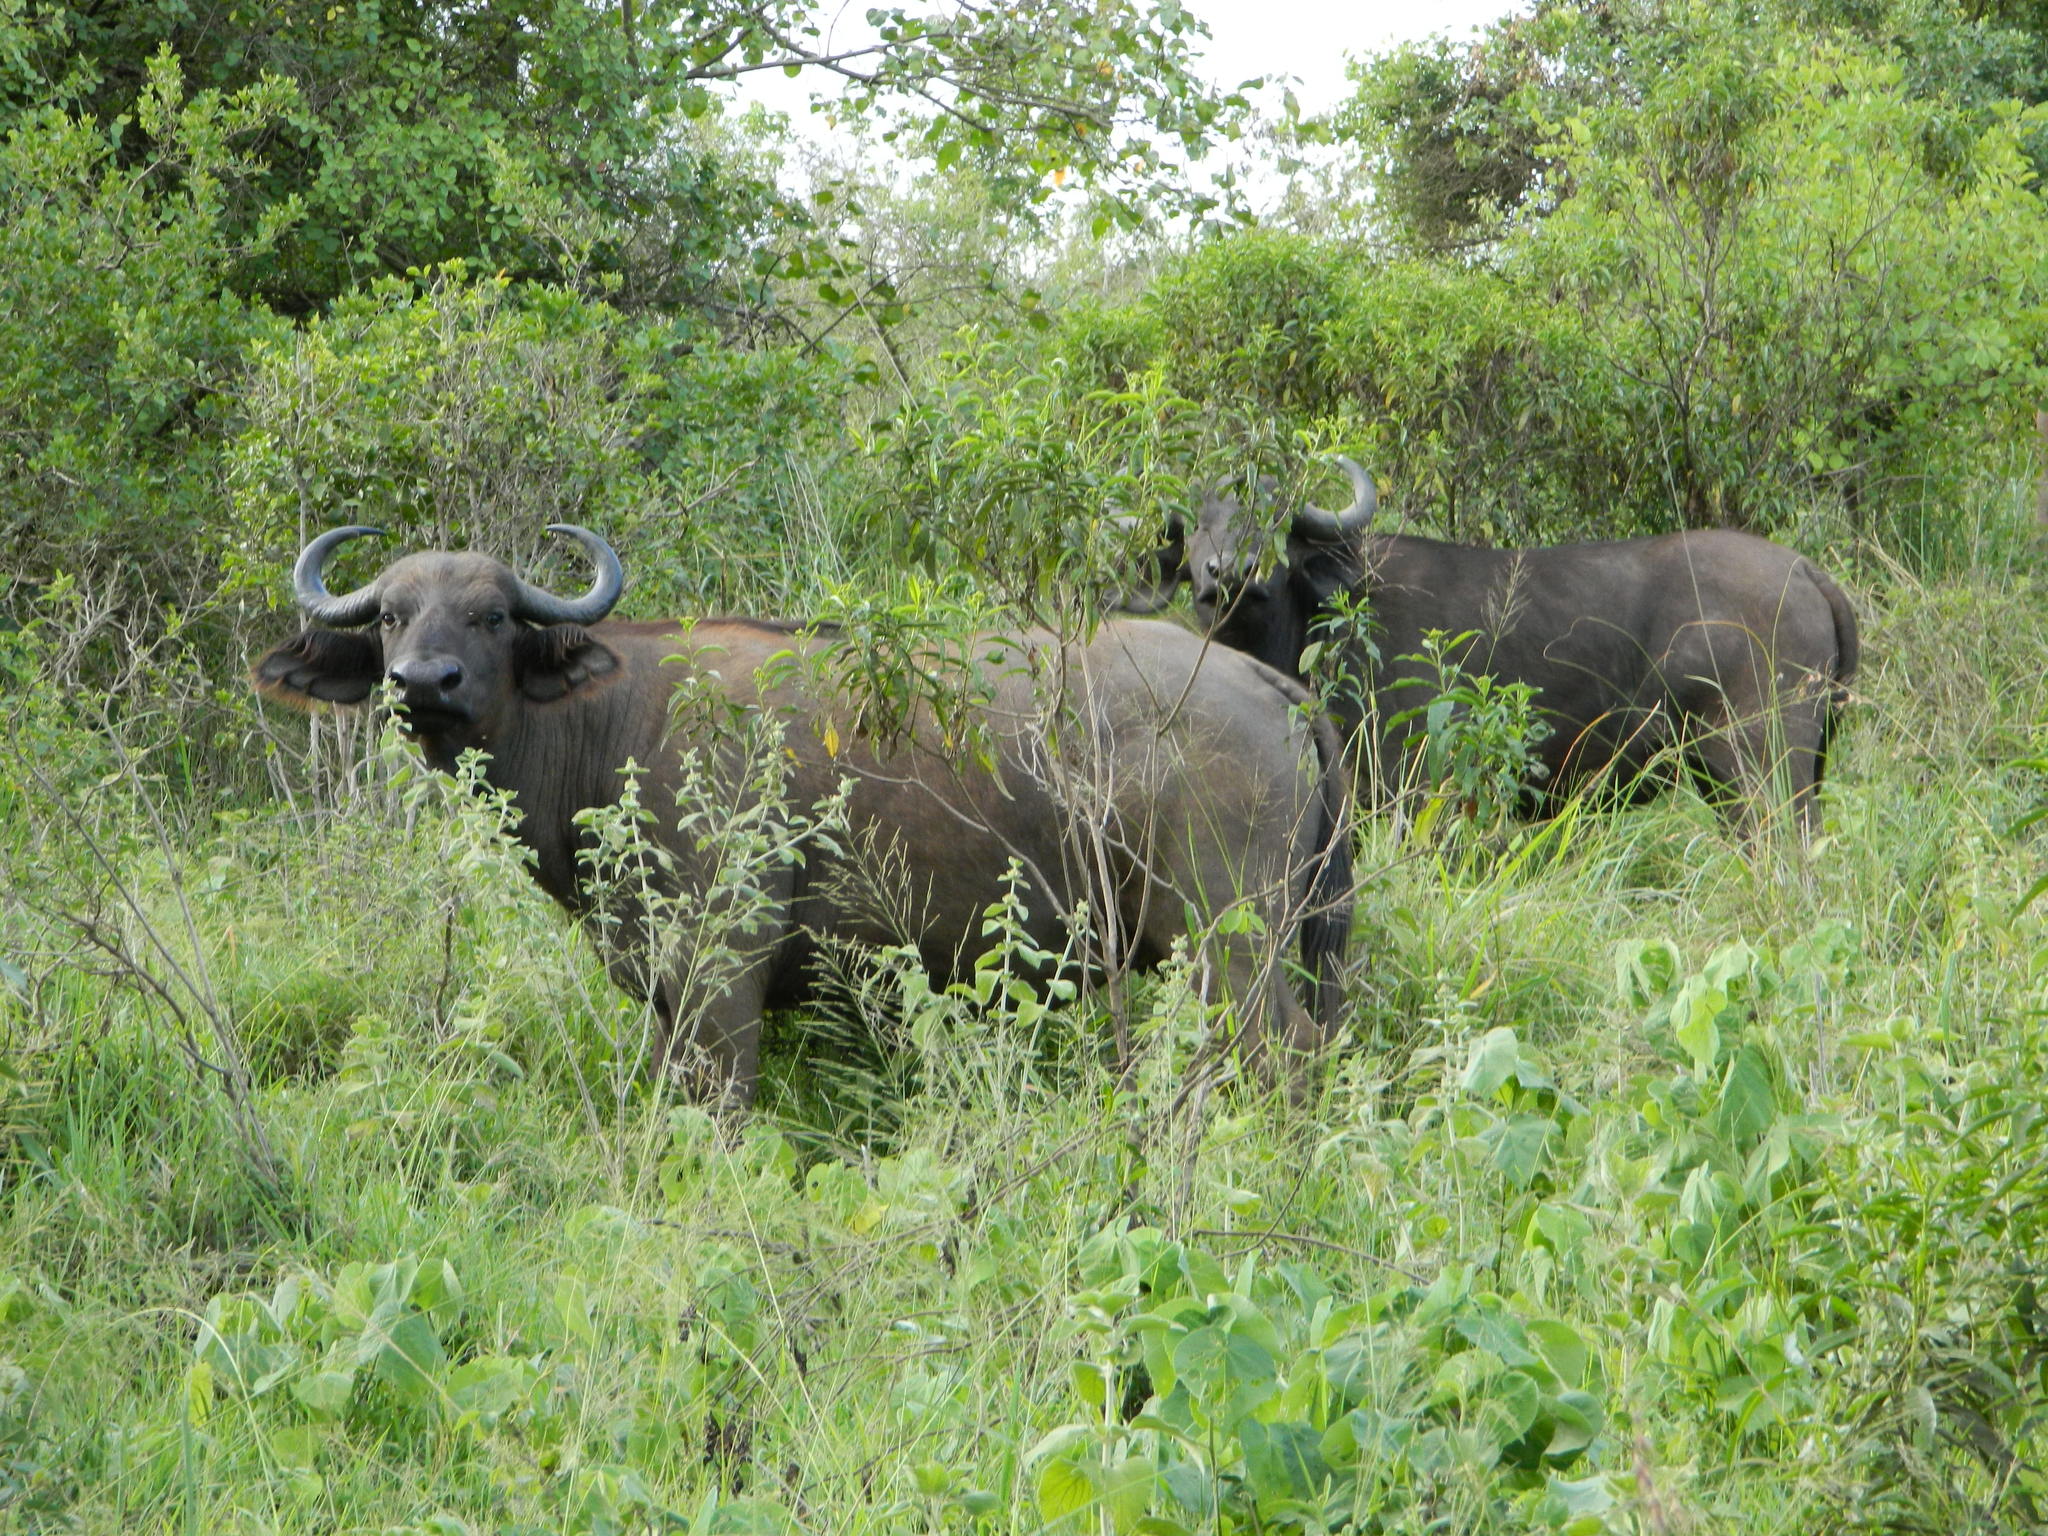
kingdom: Animalia
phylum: Chordata
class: Mammalia
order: Artiodactyla
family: Bovidae
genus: Syncerus
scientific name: Syncerus caffer
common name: African buffalo
